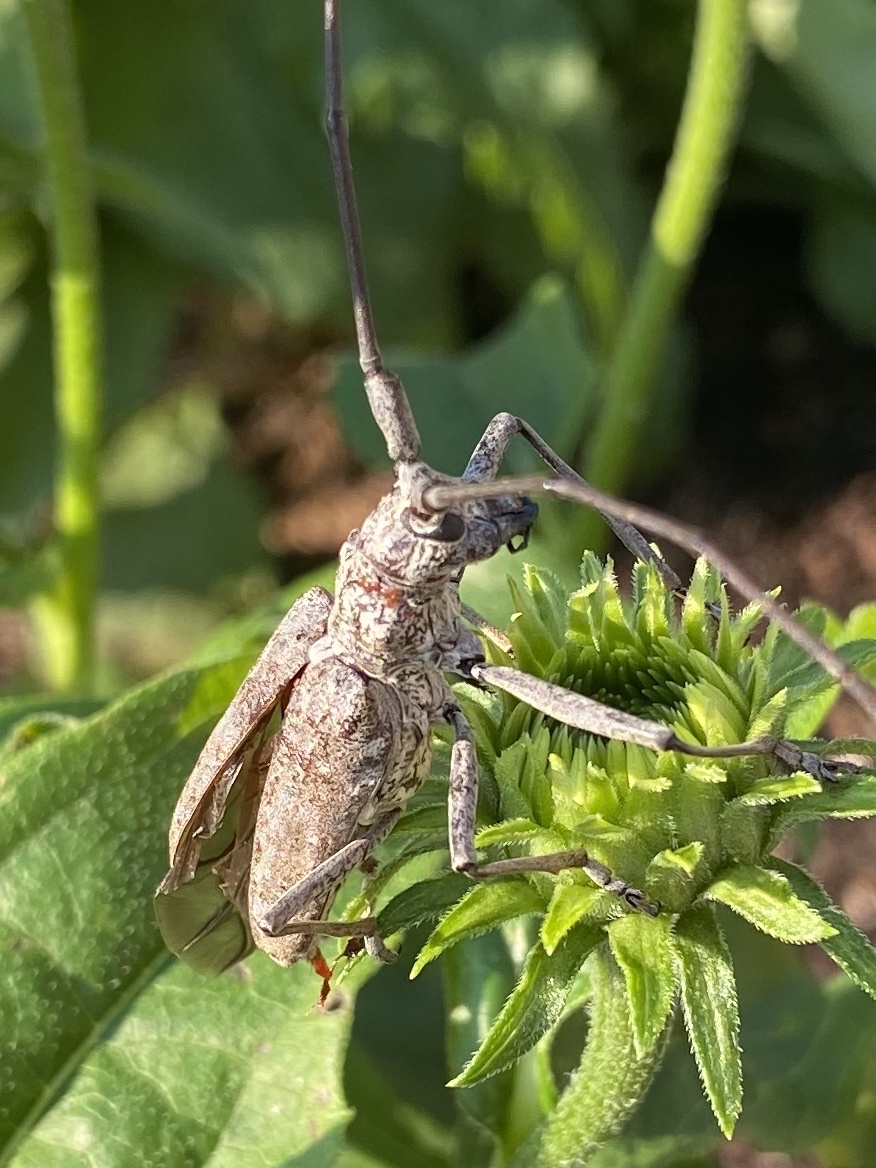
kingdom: Animalia
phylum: Arthropoda
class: Insecta
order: Coleoptera
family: Cerambycidae
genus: Monochamus
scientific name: Monochamus notatus
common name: Northeastern pine sawyer beetle
